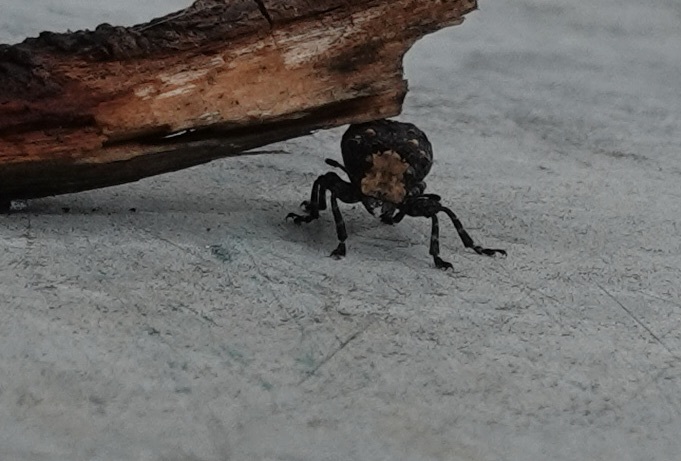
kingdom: Animalia
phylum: Arthropoda
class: Insecta
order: Coleoptera
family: Anthribidae
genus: Platyrhinus
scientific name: Platyrhinus resinosus
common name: Cramp-ball fungus weevil
